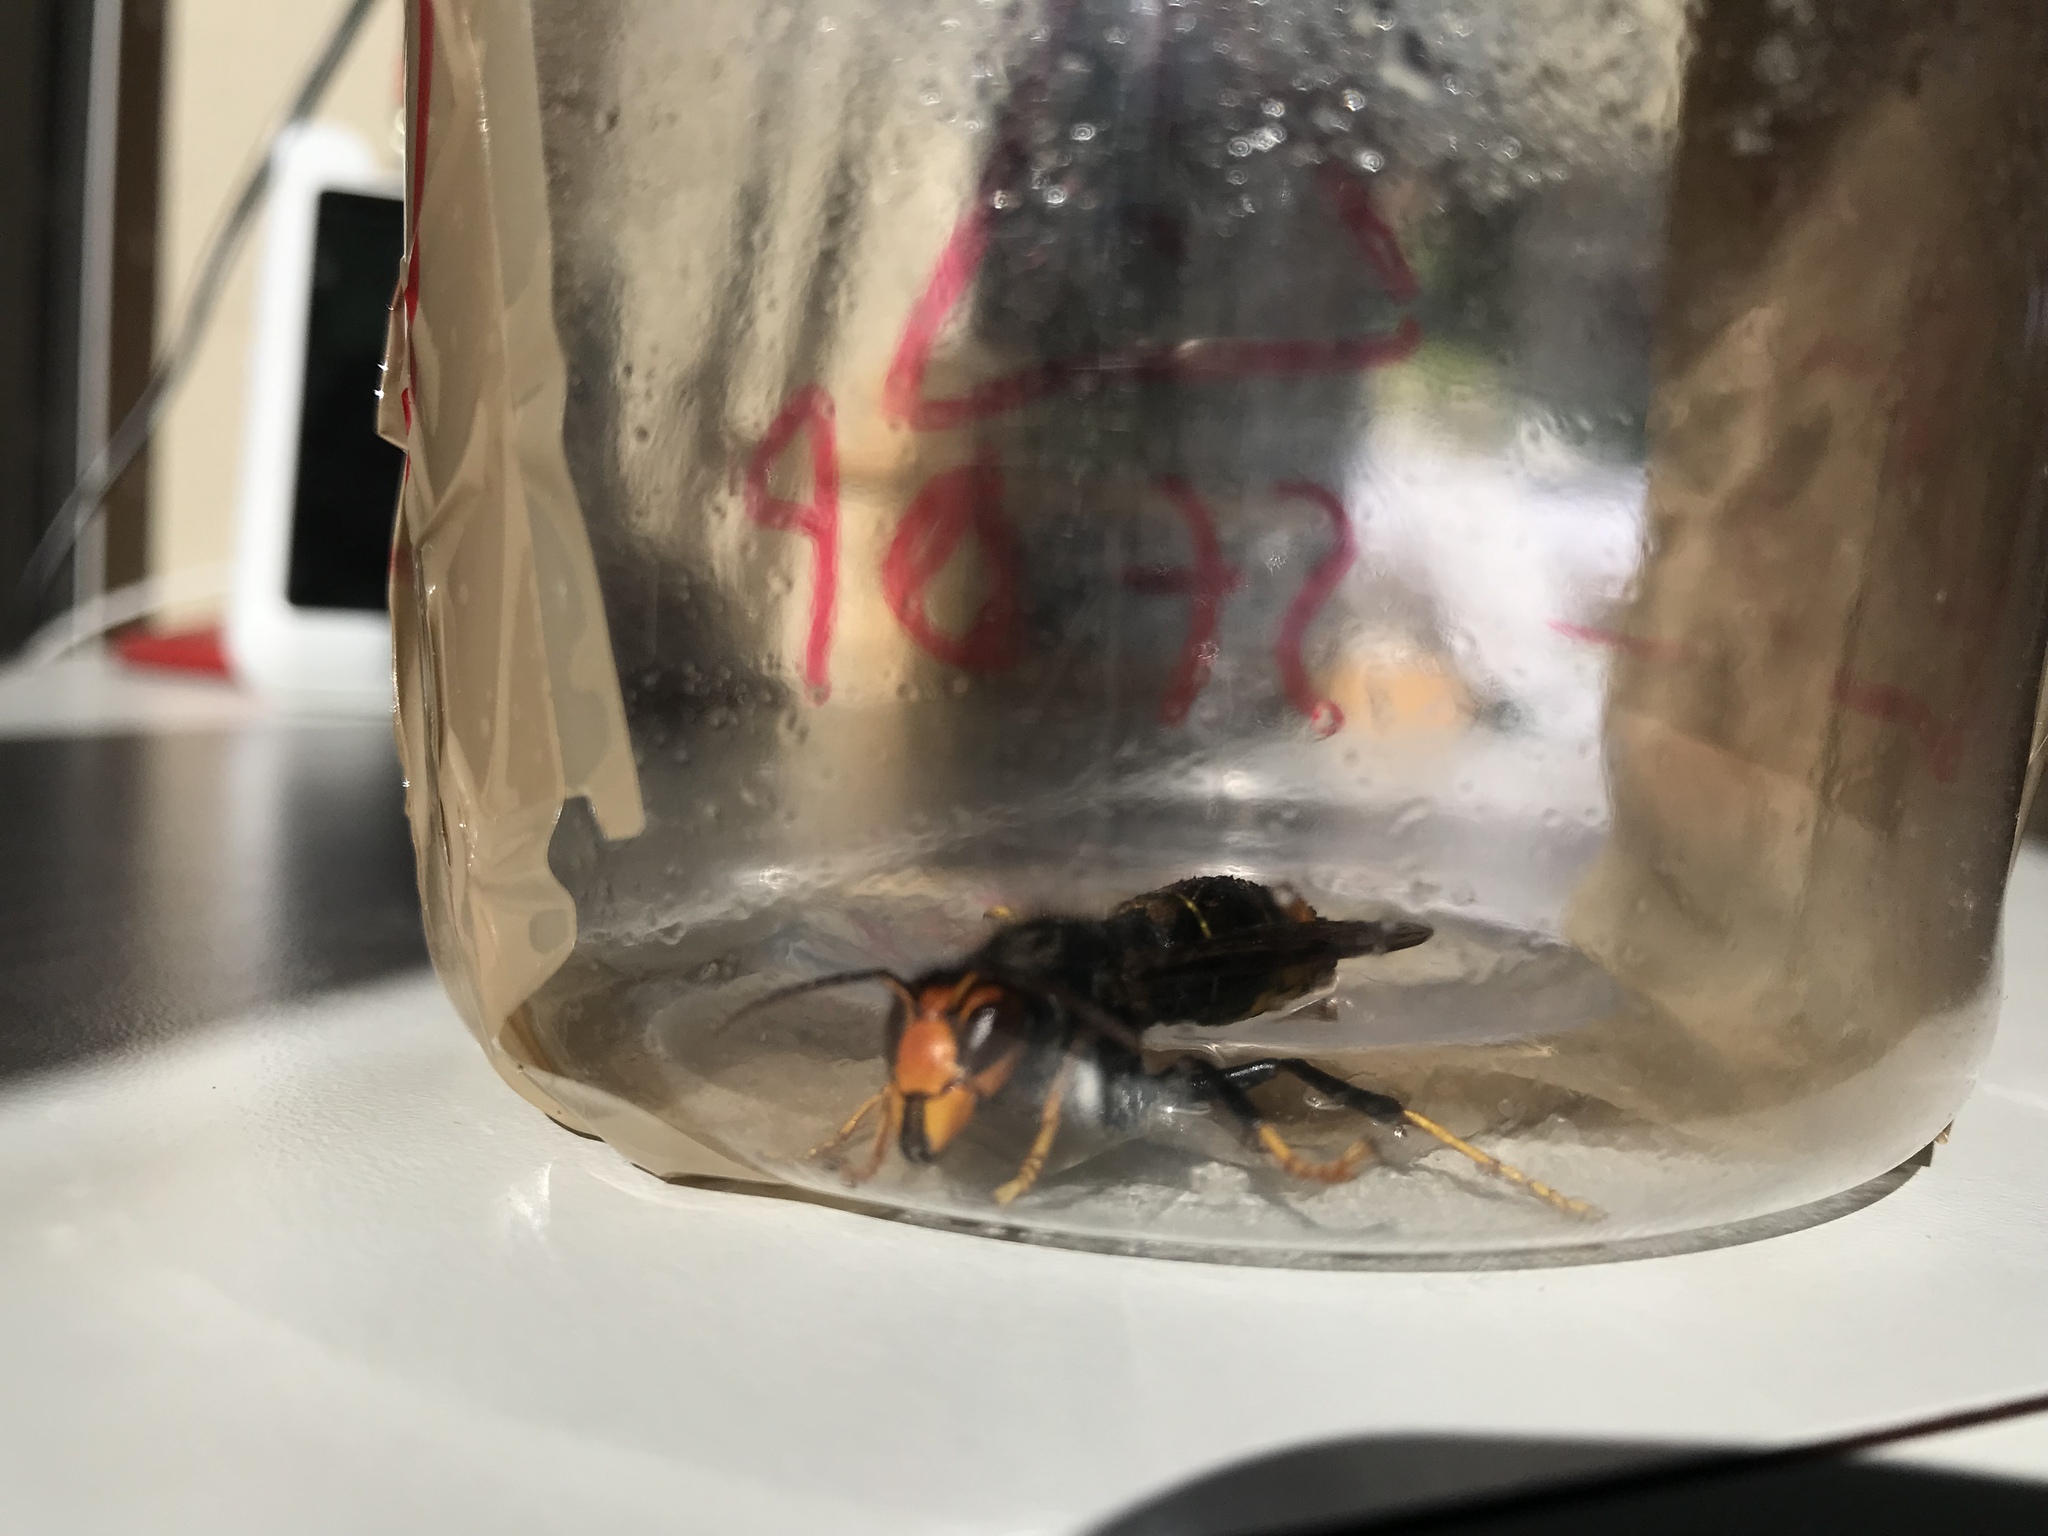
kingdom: Animalia
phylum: Arthropoda
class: Insecta
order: Hymenoptera
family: Vespidae
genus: Vespa
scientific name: Vespa velutina
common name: Asian hornet
